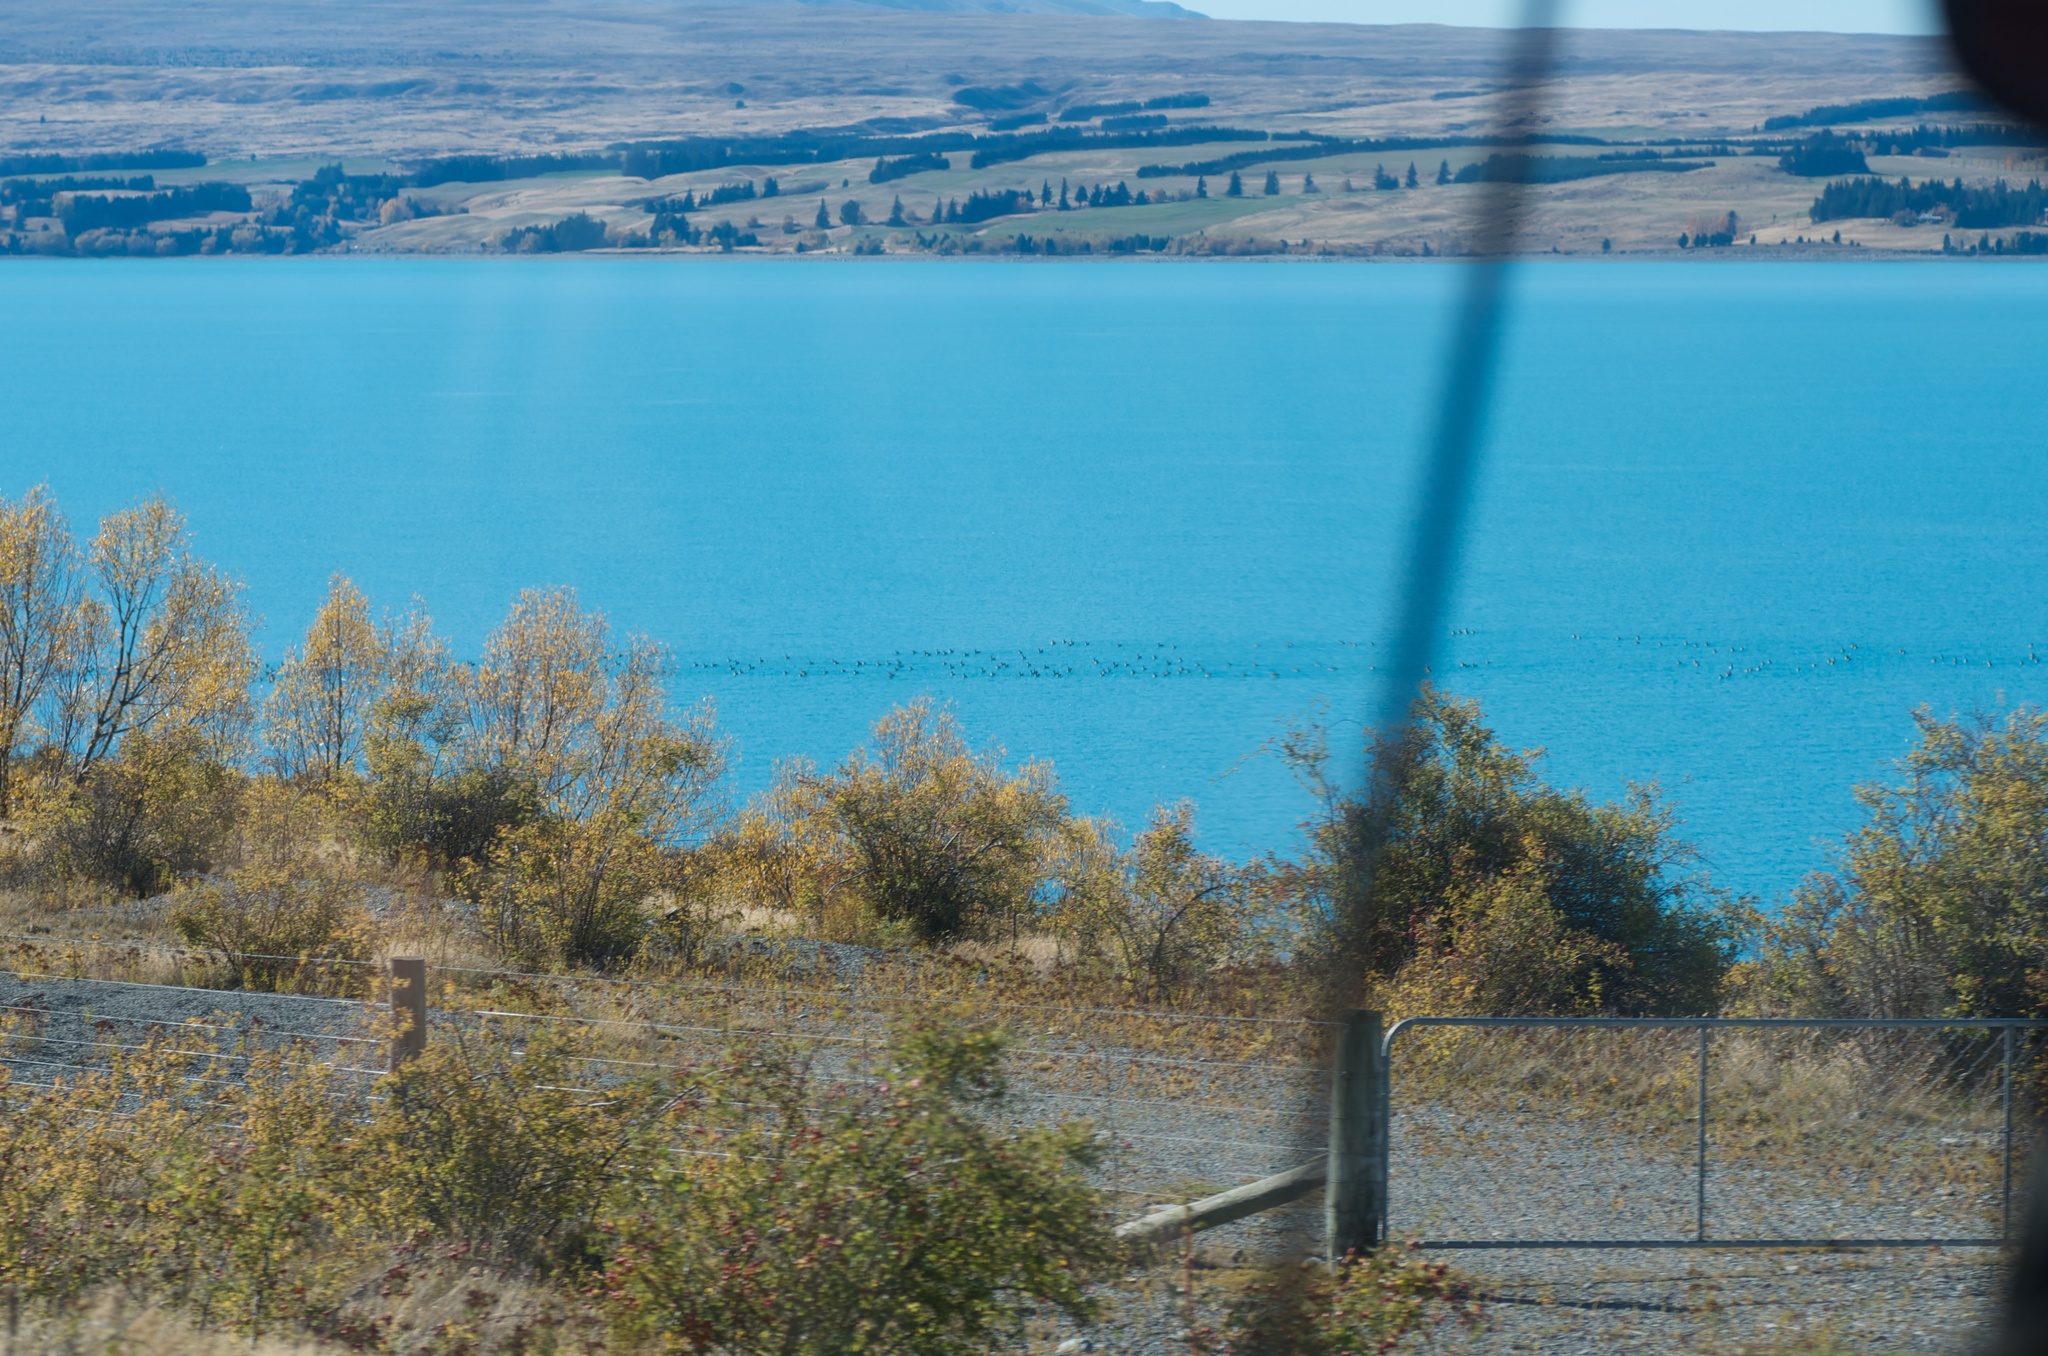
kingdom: Animalia
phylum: Chordata
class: Aves
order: Anseriformes
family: Anatidae
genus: Anas
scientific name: Anas
